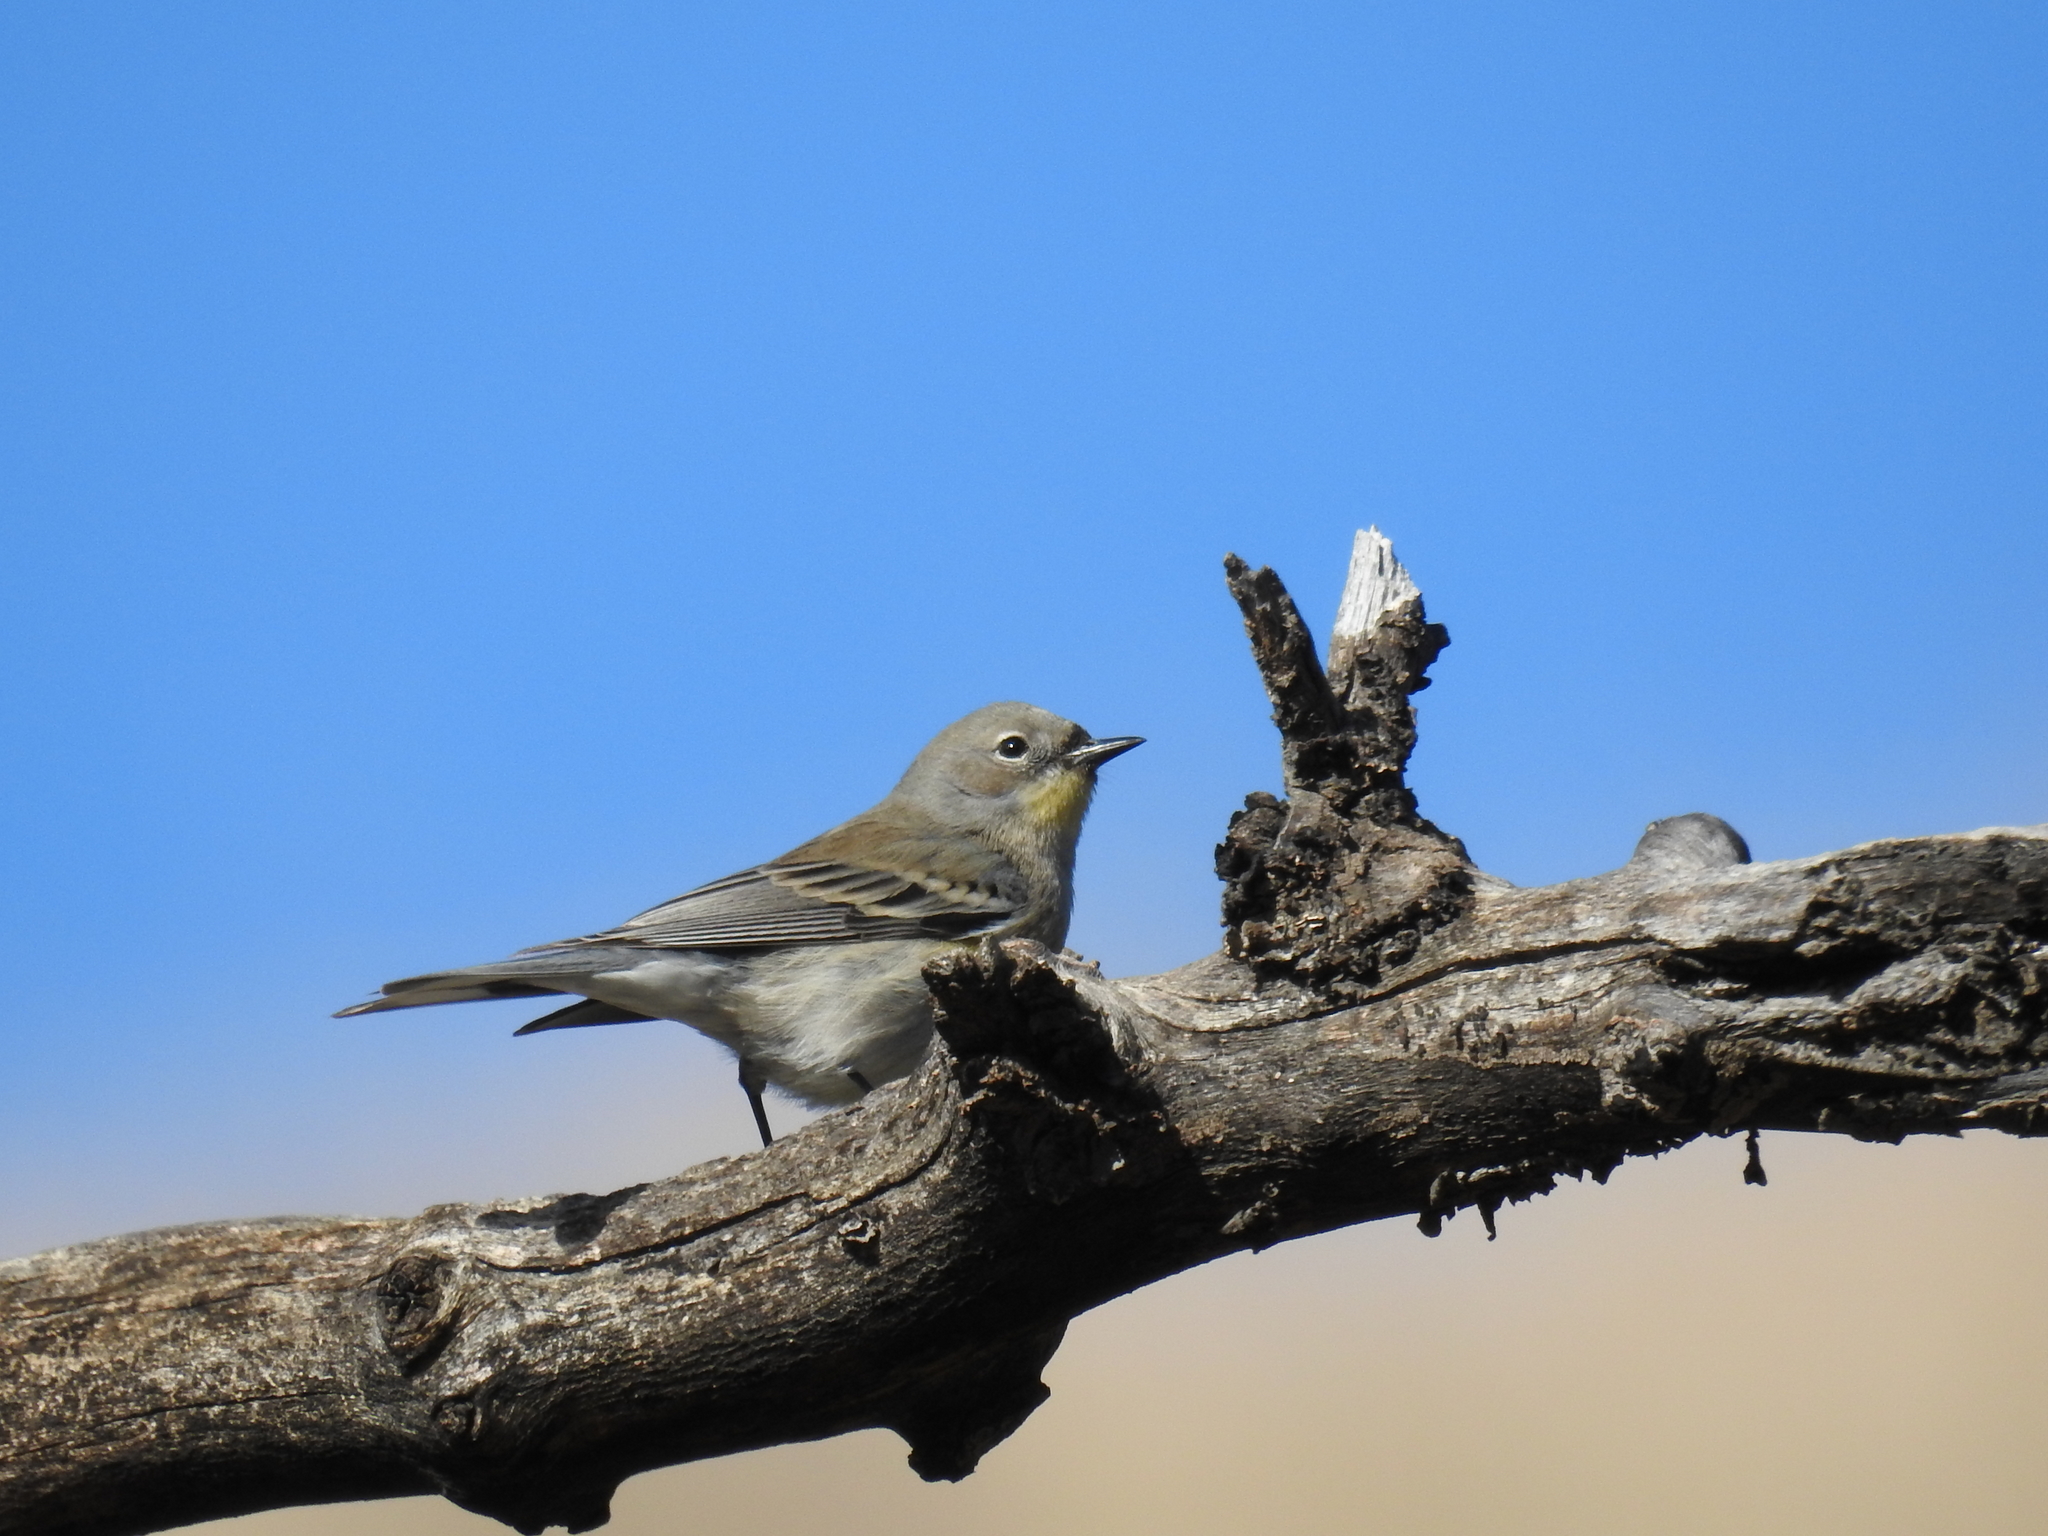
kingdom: Animalia
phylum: Chordata
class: Aves
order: Passeriformes
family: Parulidae
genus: Setophaga
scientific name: Setophaga coronata
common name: Myrtle warbler
